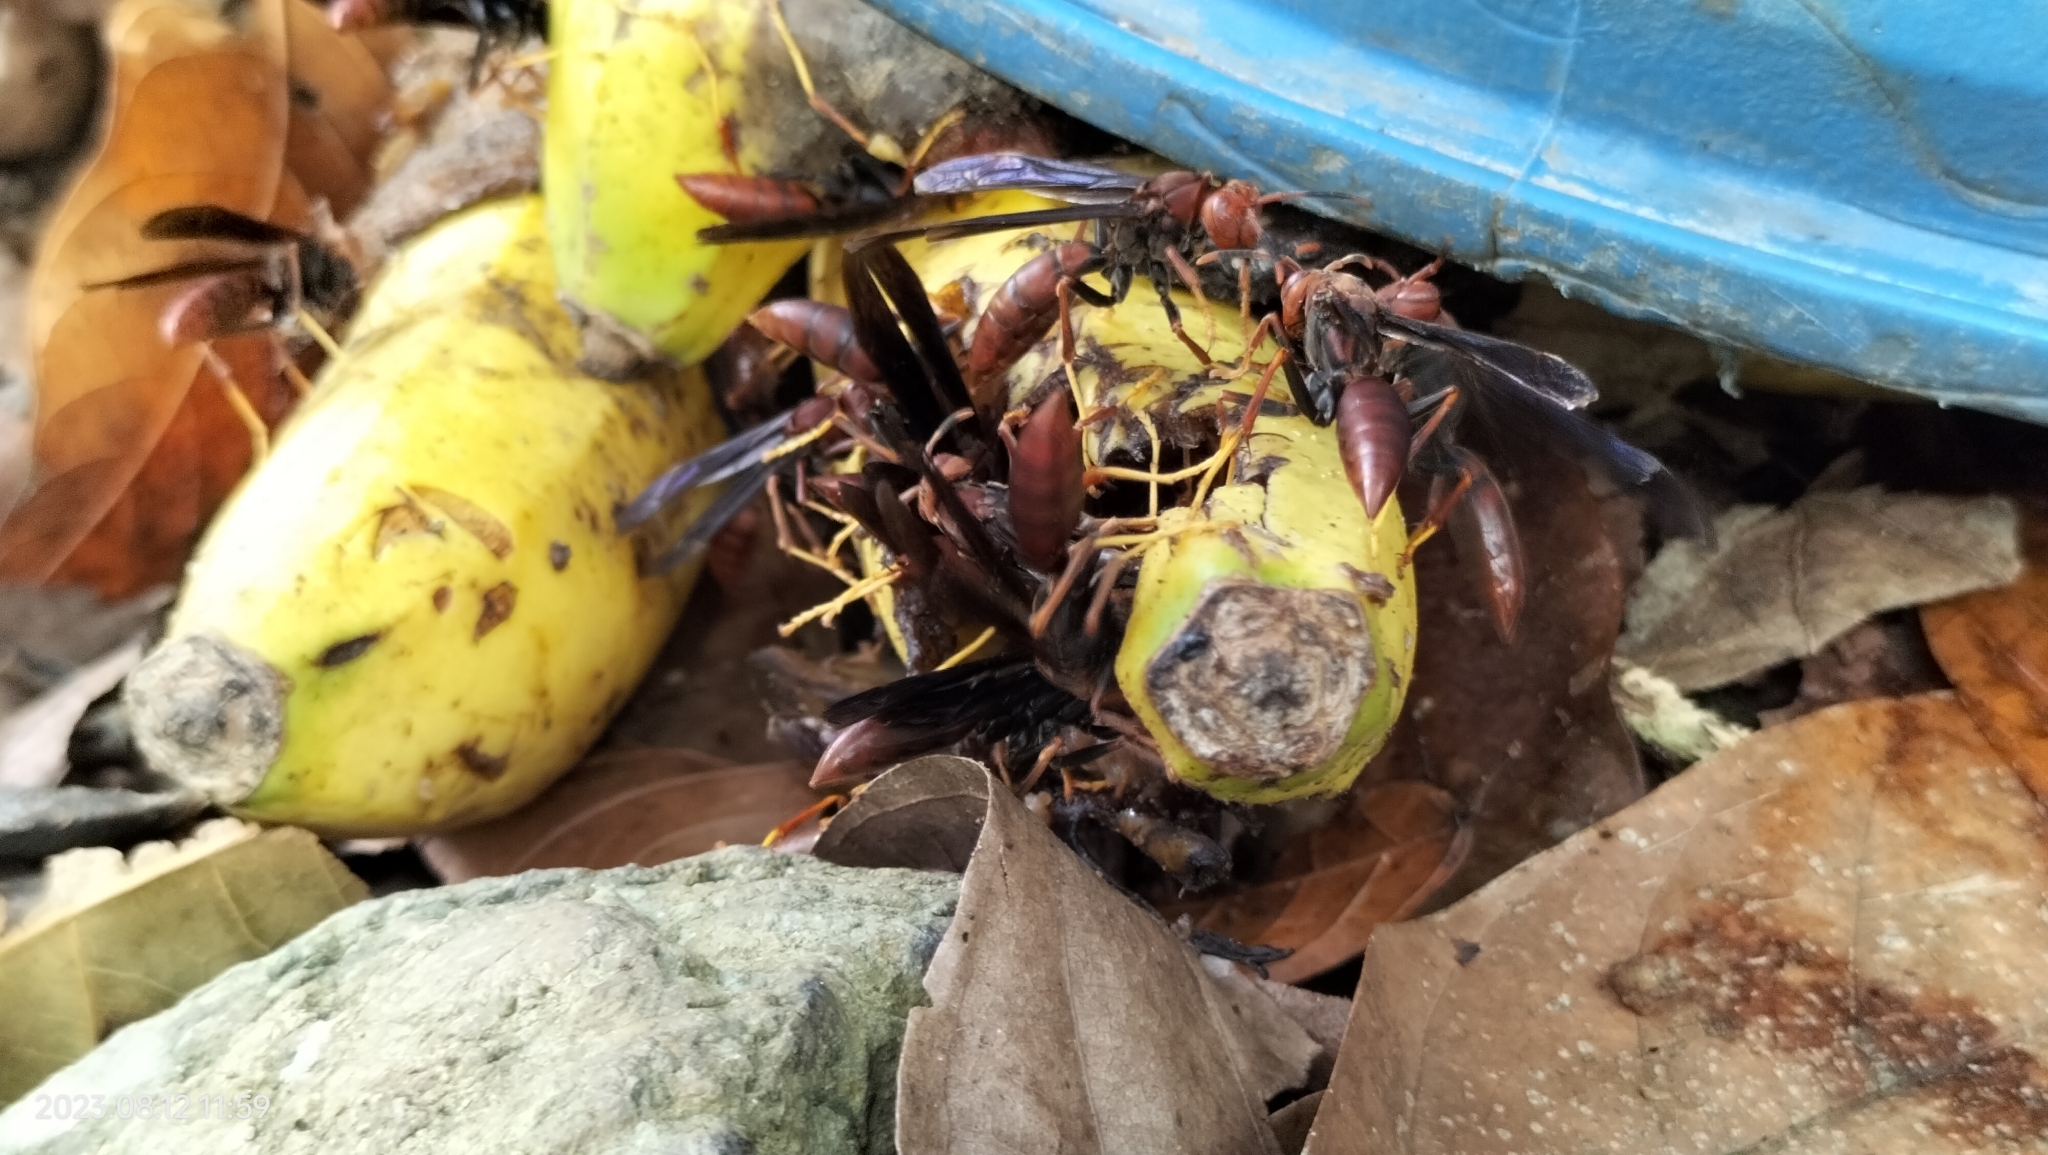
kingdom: Animalia
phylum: Arthropoda
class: Insecta
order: Hymenoptera
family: Eumenidae
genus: Polistes
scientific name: Polistes lanio
